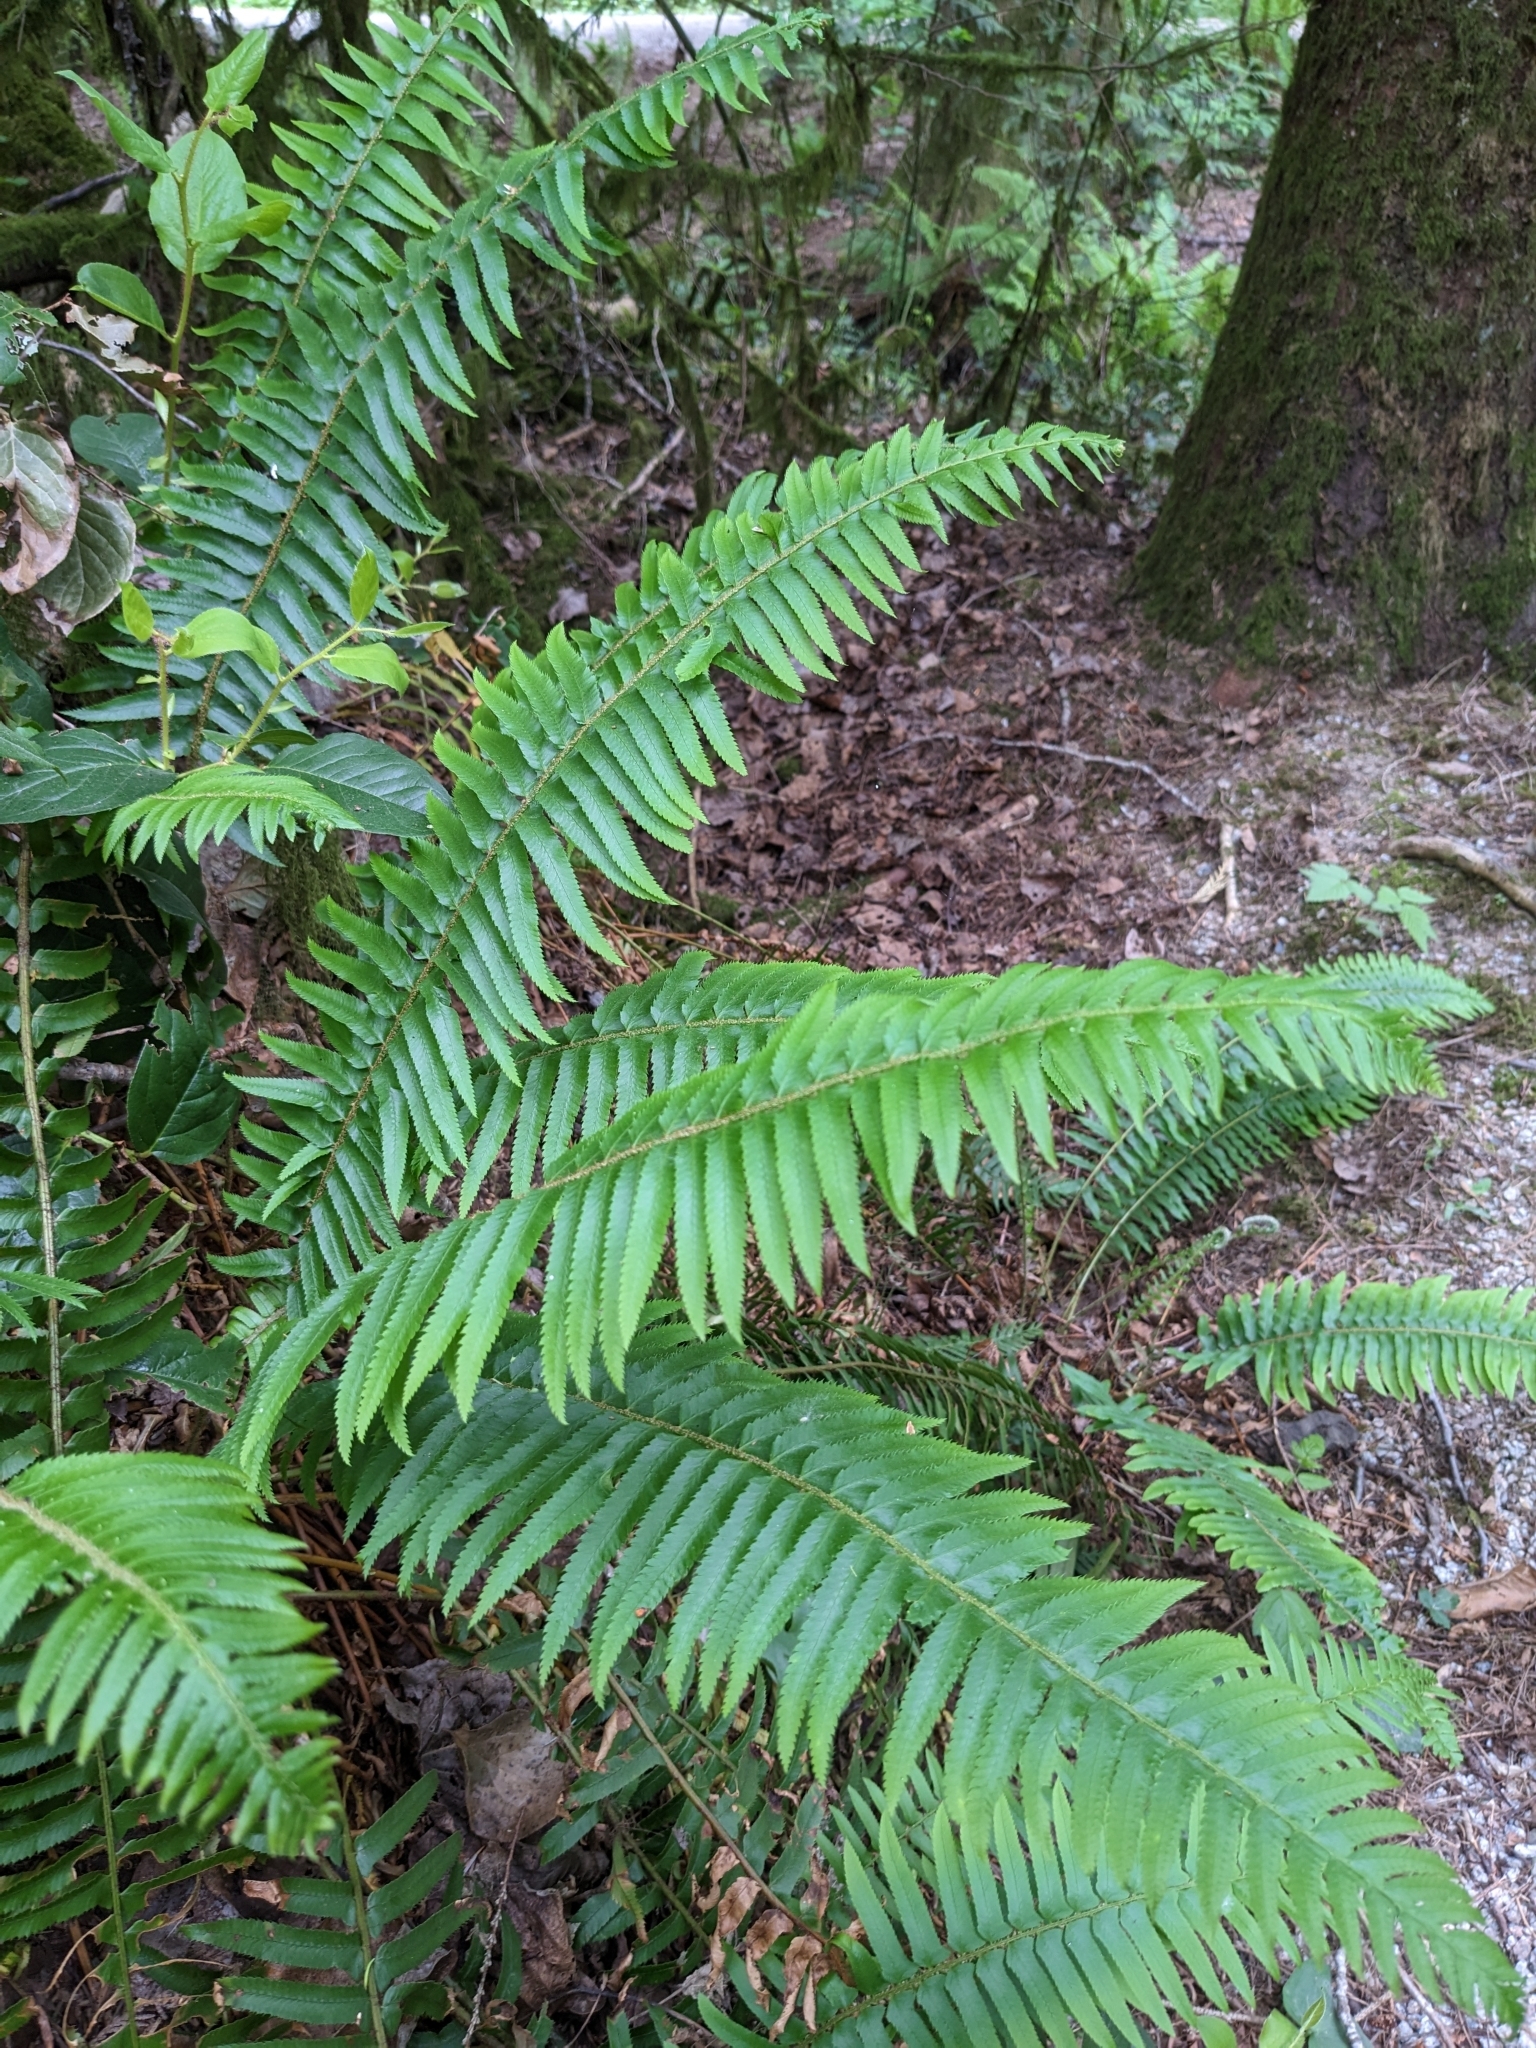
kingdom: Plantae
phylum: Tracheophyta
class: Polypodiopsida
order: Polypodiales
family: Dryopteridaceae
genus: Polystichum
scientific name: Polystichum munitum
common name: Western sword-fern
